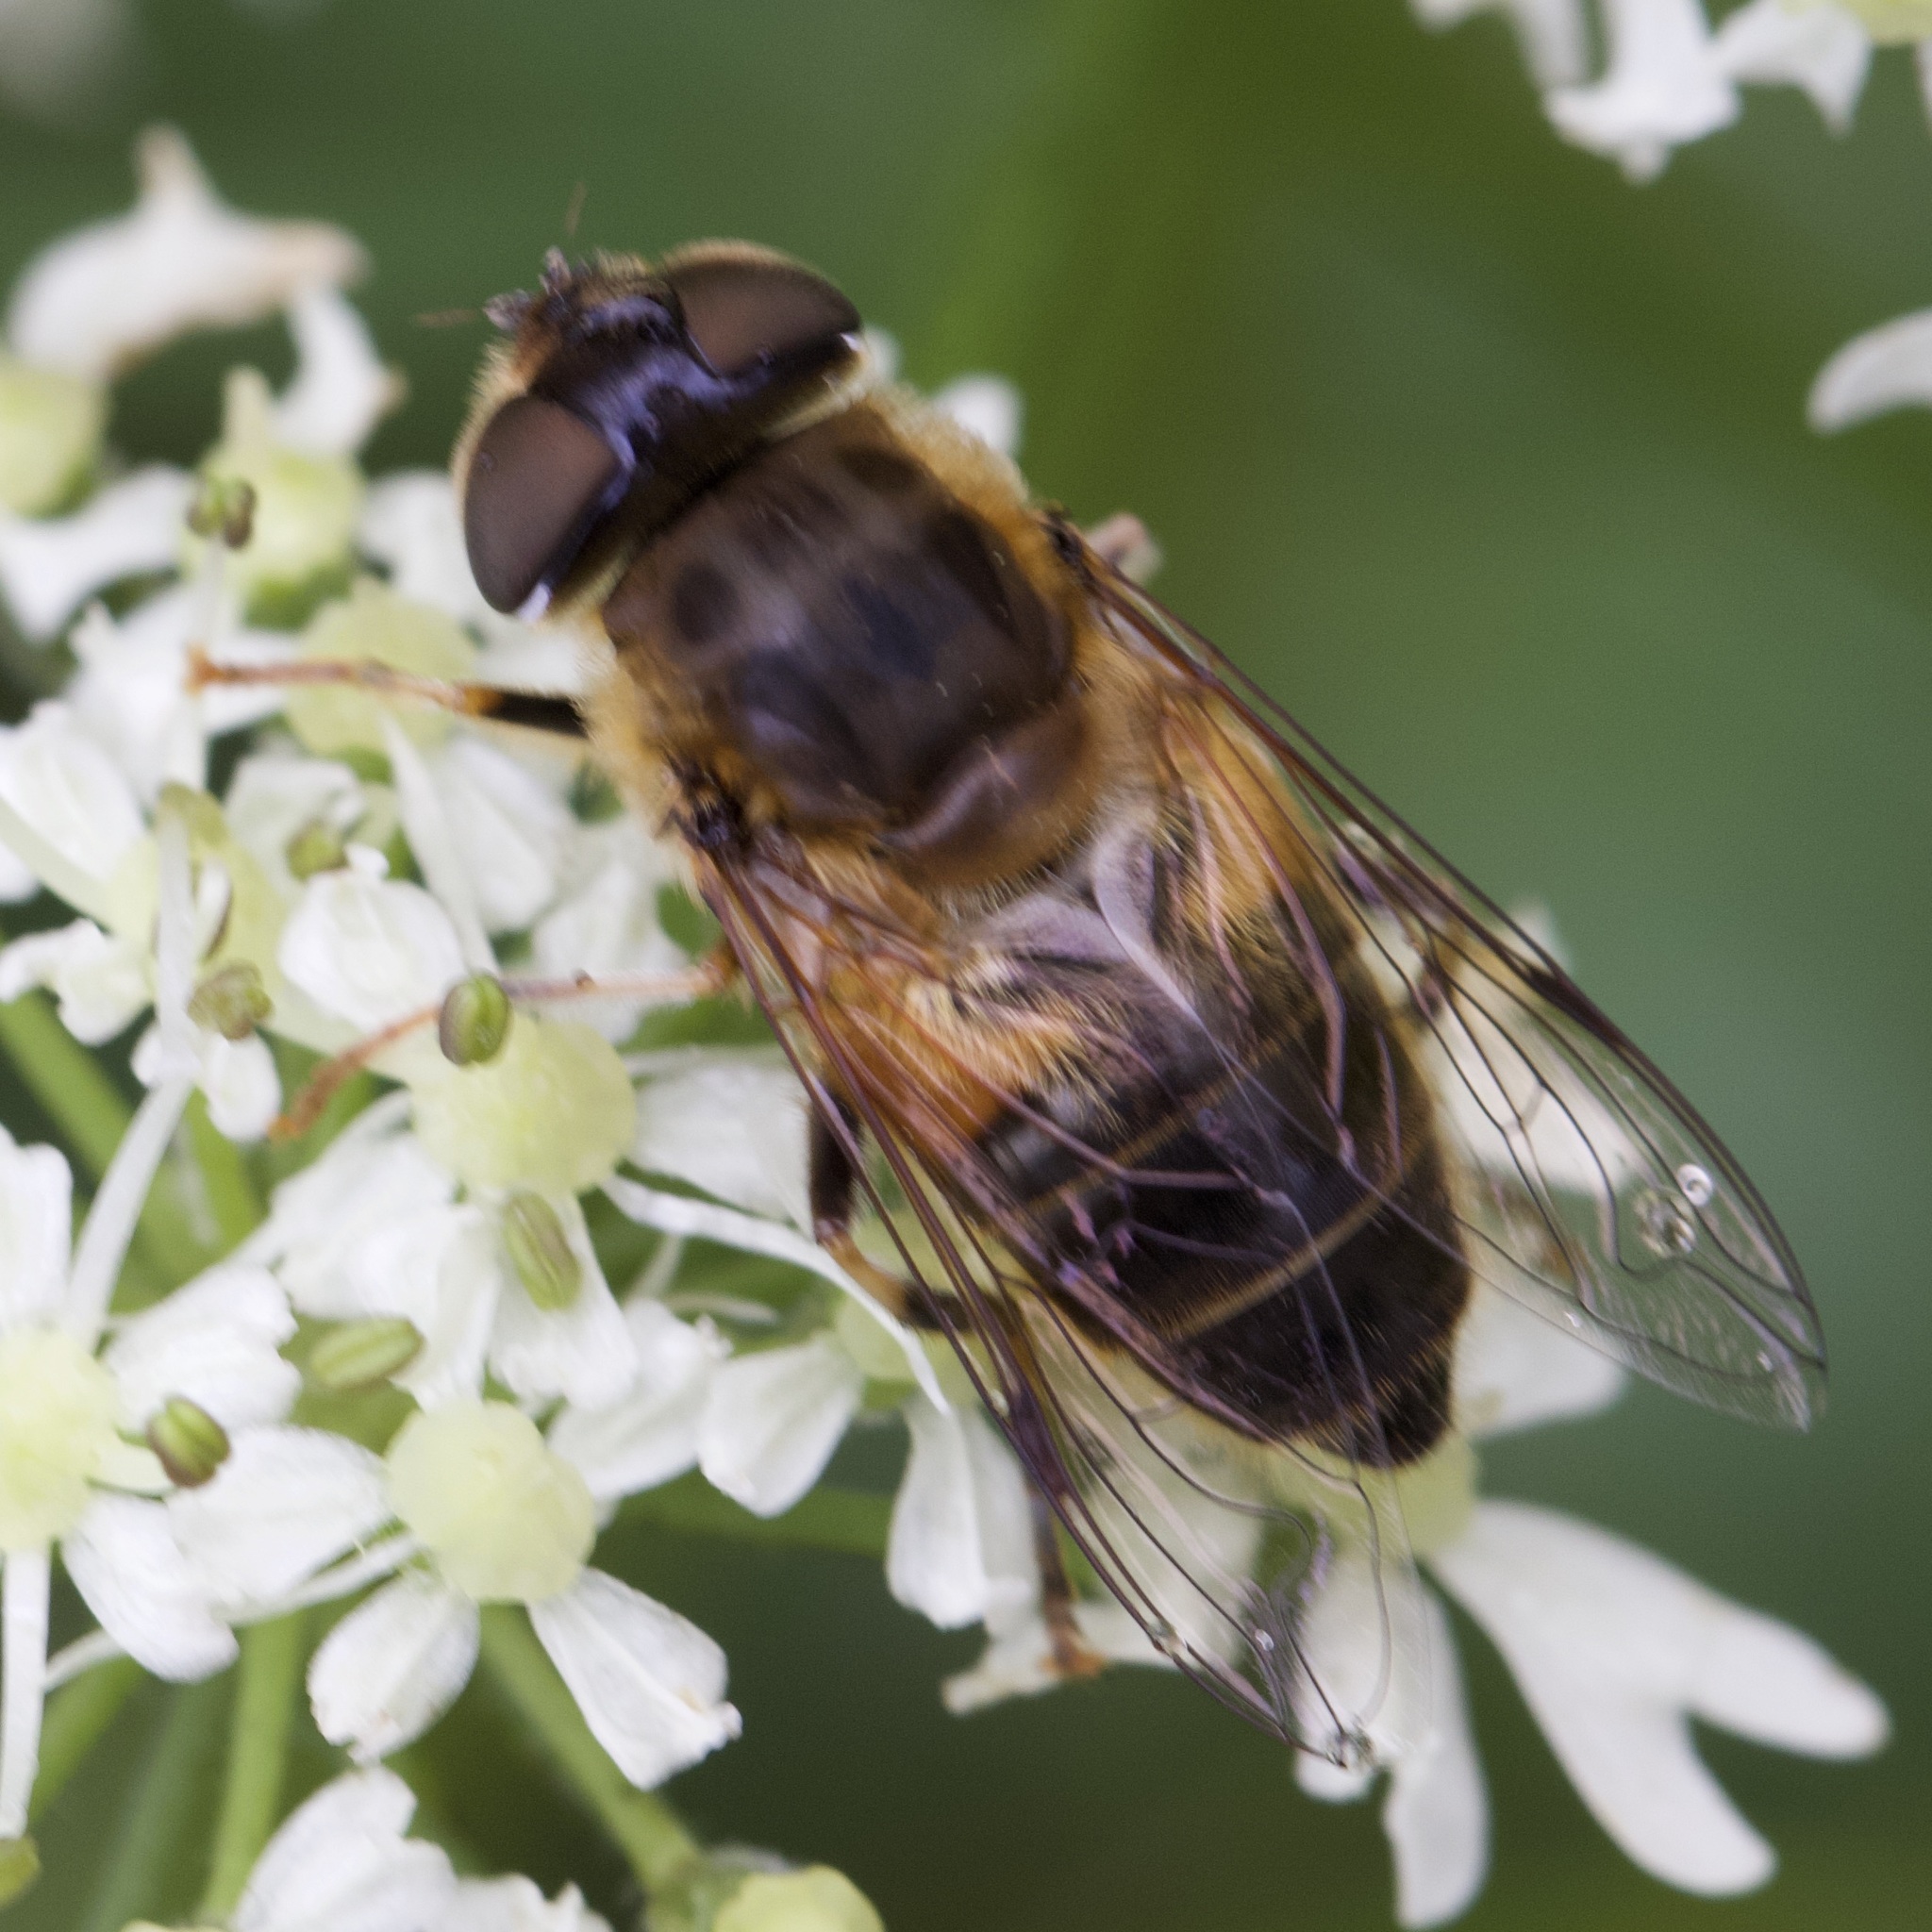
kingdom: Animalia
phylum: Arthropoda
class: Insecta
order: Diptera
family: Syrphidae
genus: Eristalis
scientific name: Eristalis pertinax
